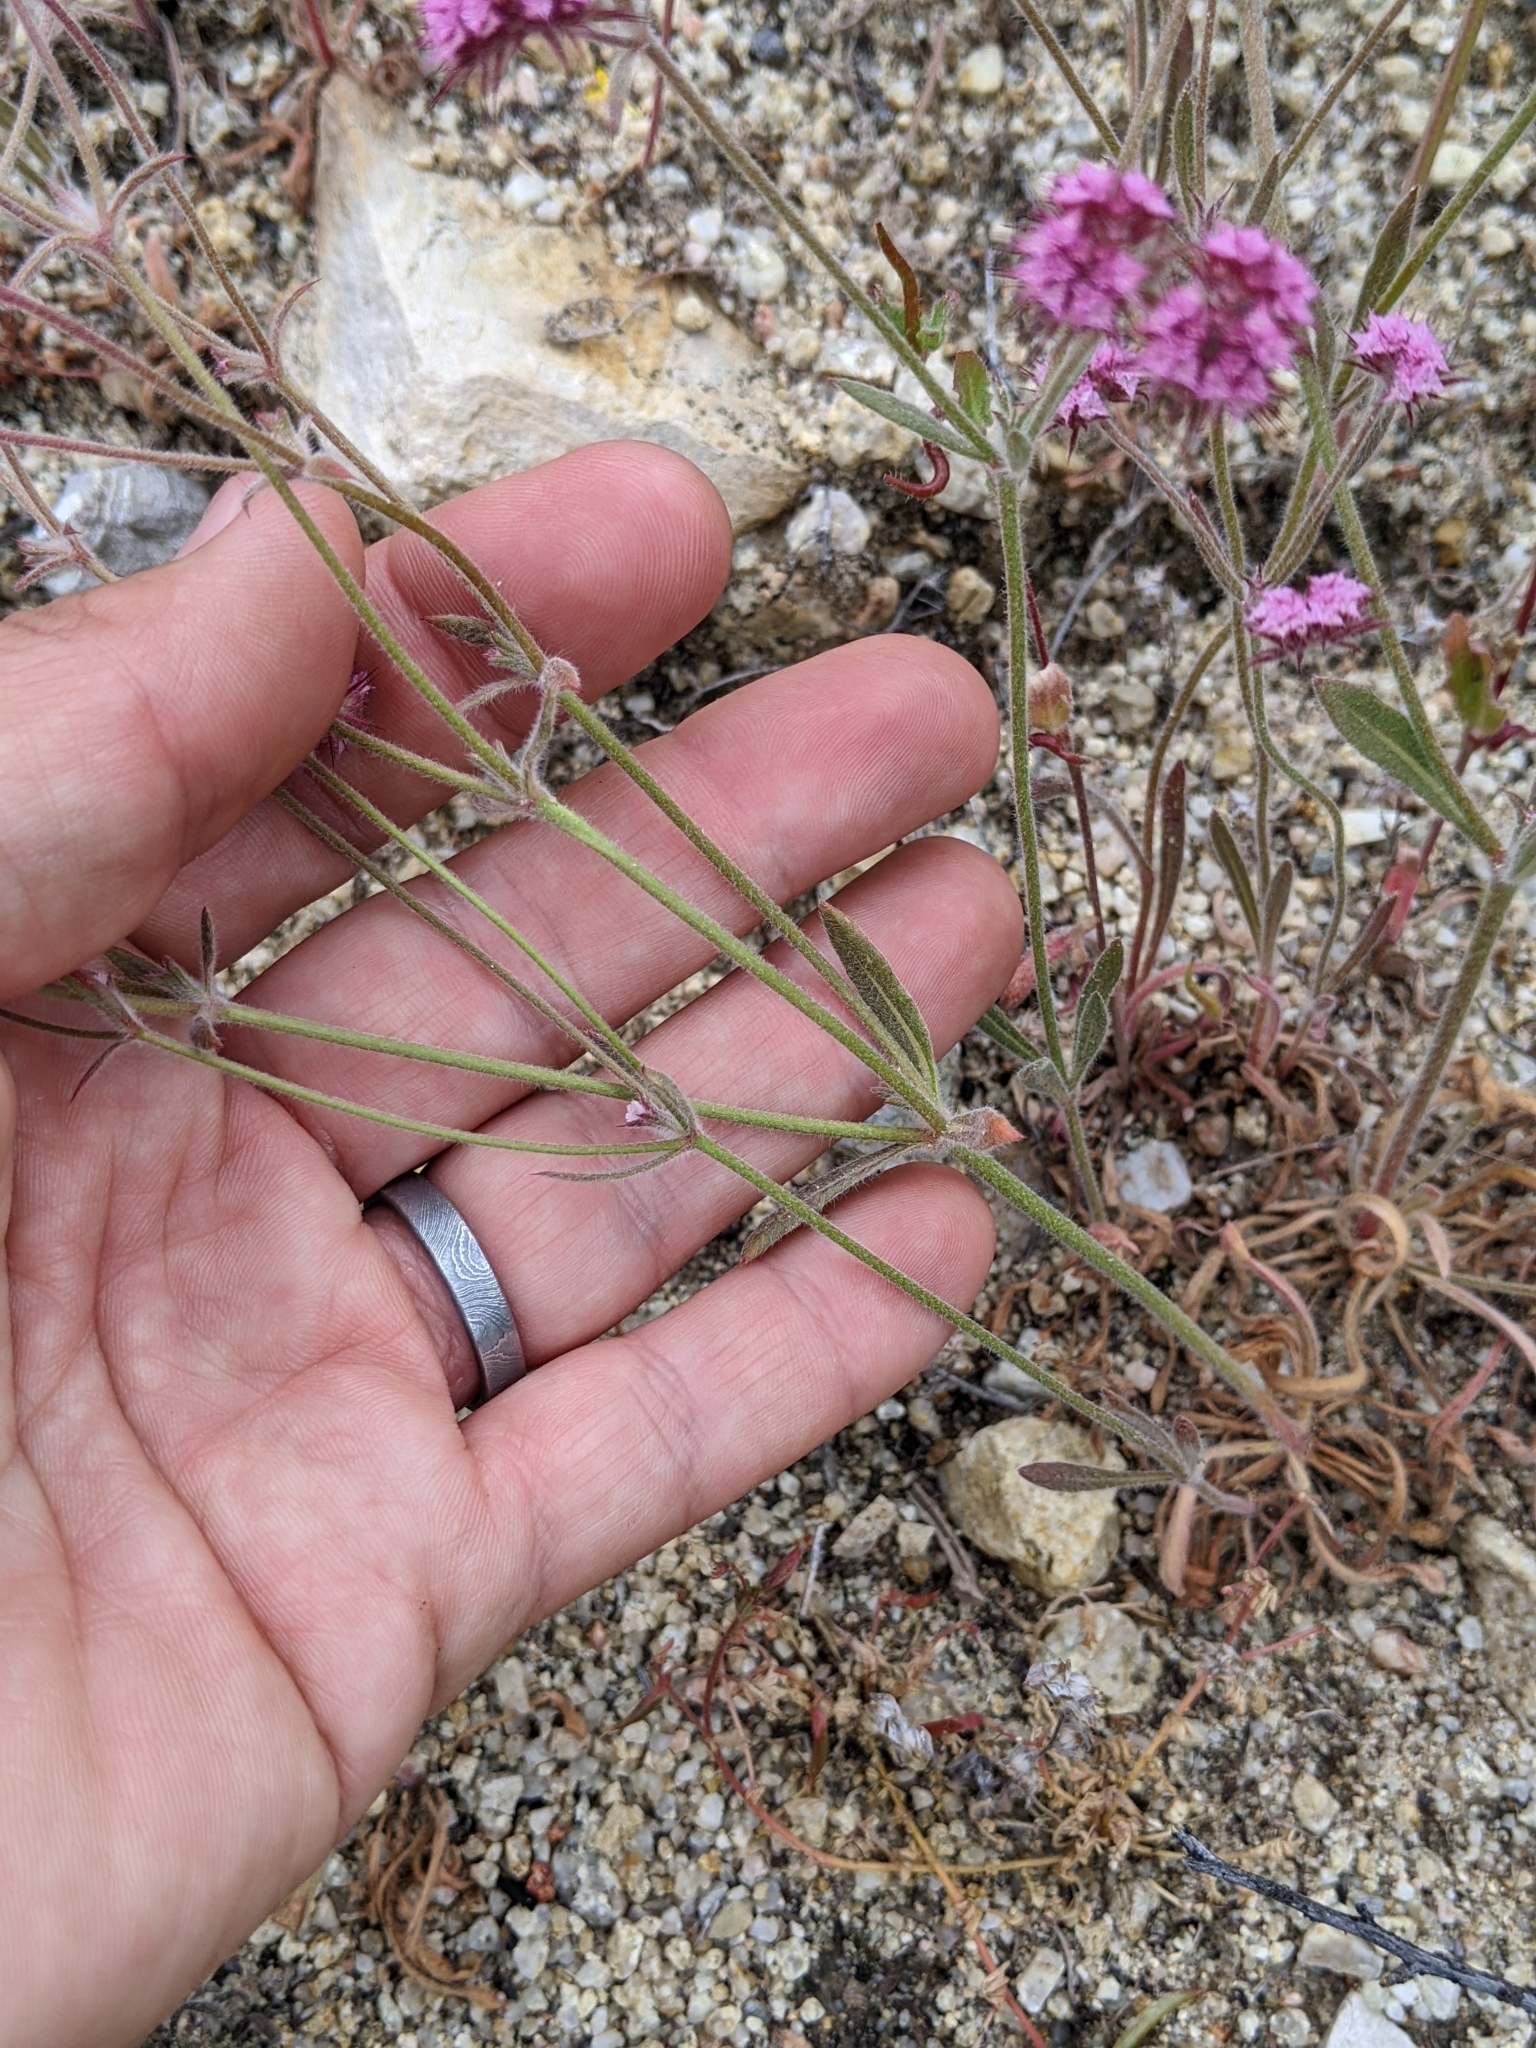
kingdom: Plantae
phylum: Tracheophyta
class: Magnoliopsida
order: Caryophyllales
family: Polygonaceae
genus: Chorizanthe
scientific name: Chorizanthe douglasii
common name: Douglas's spineflower
